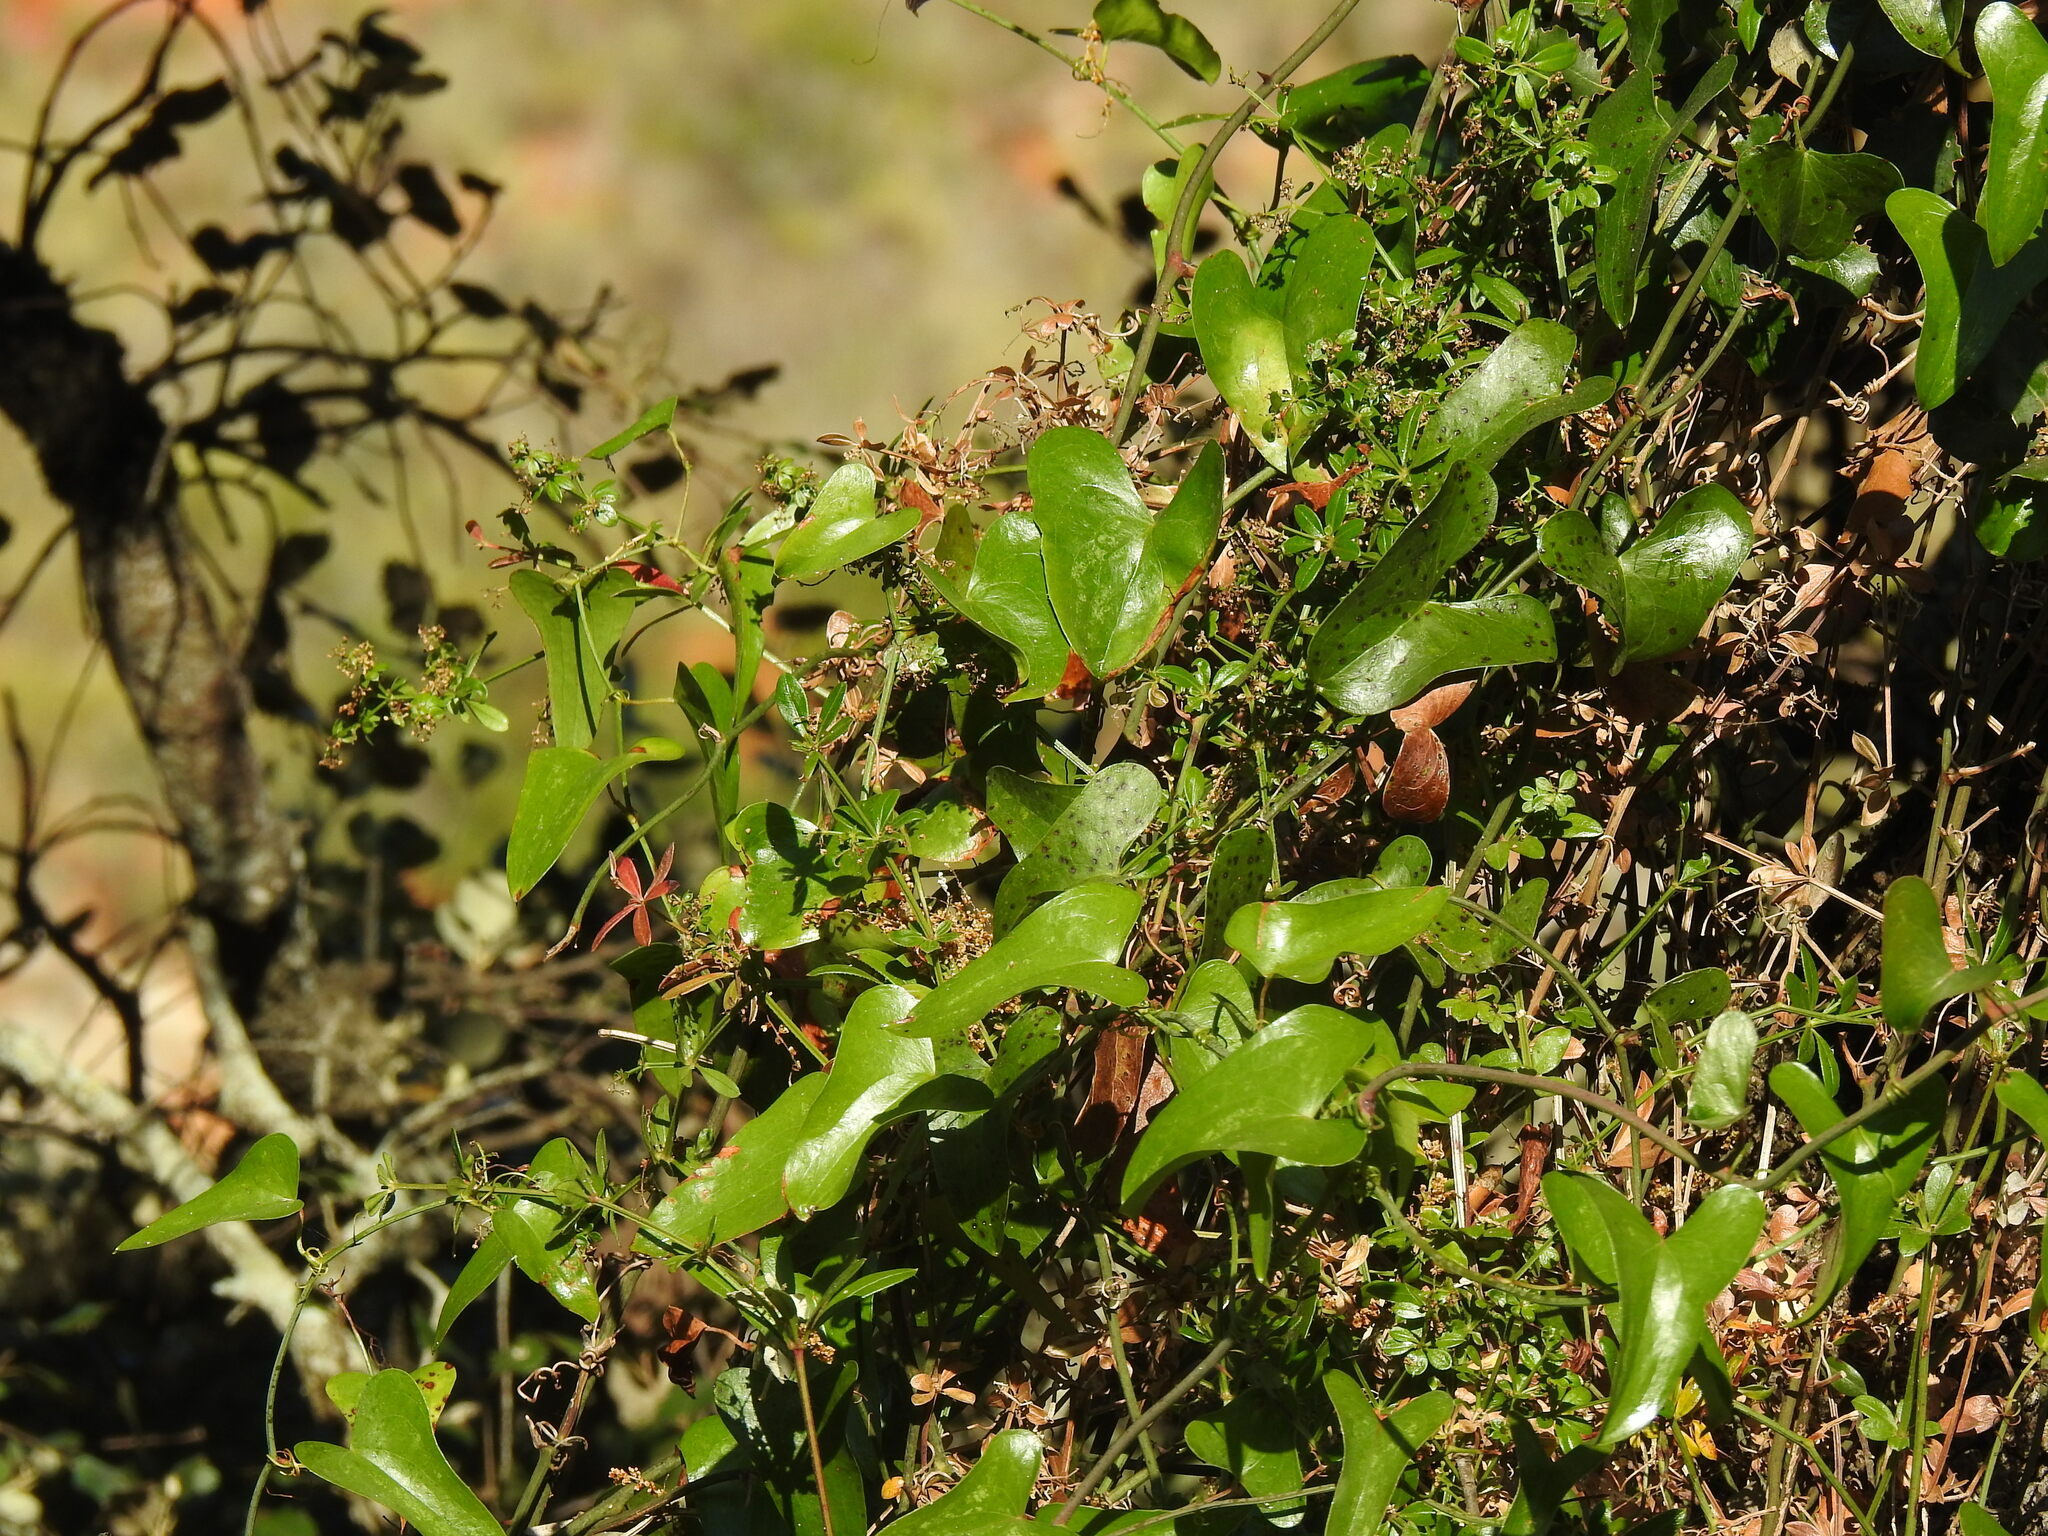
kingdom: Plantae
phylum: Tracheophyta
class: Liliopsida
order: Liliales
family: Smilacaceae
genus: Smilax
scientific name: Smilax aspera
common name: Common smilax
